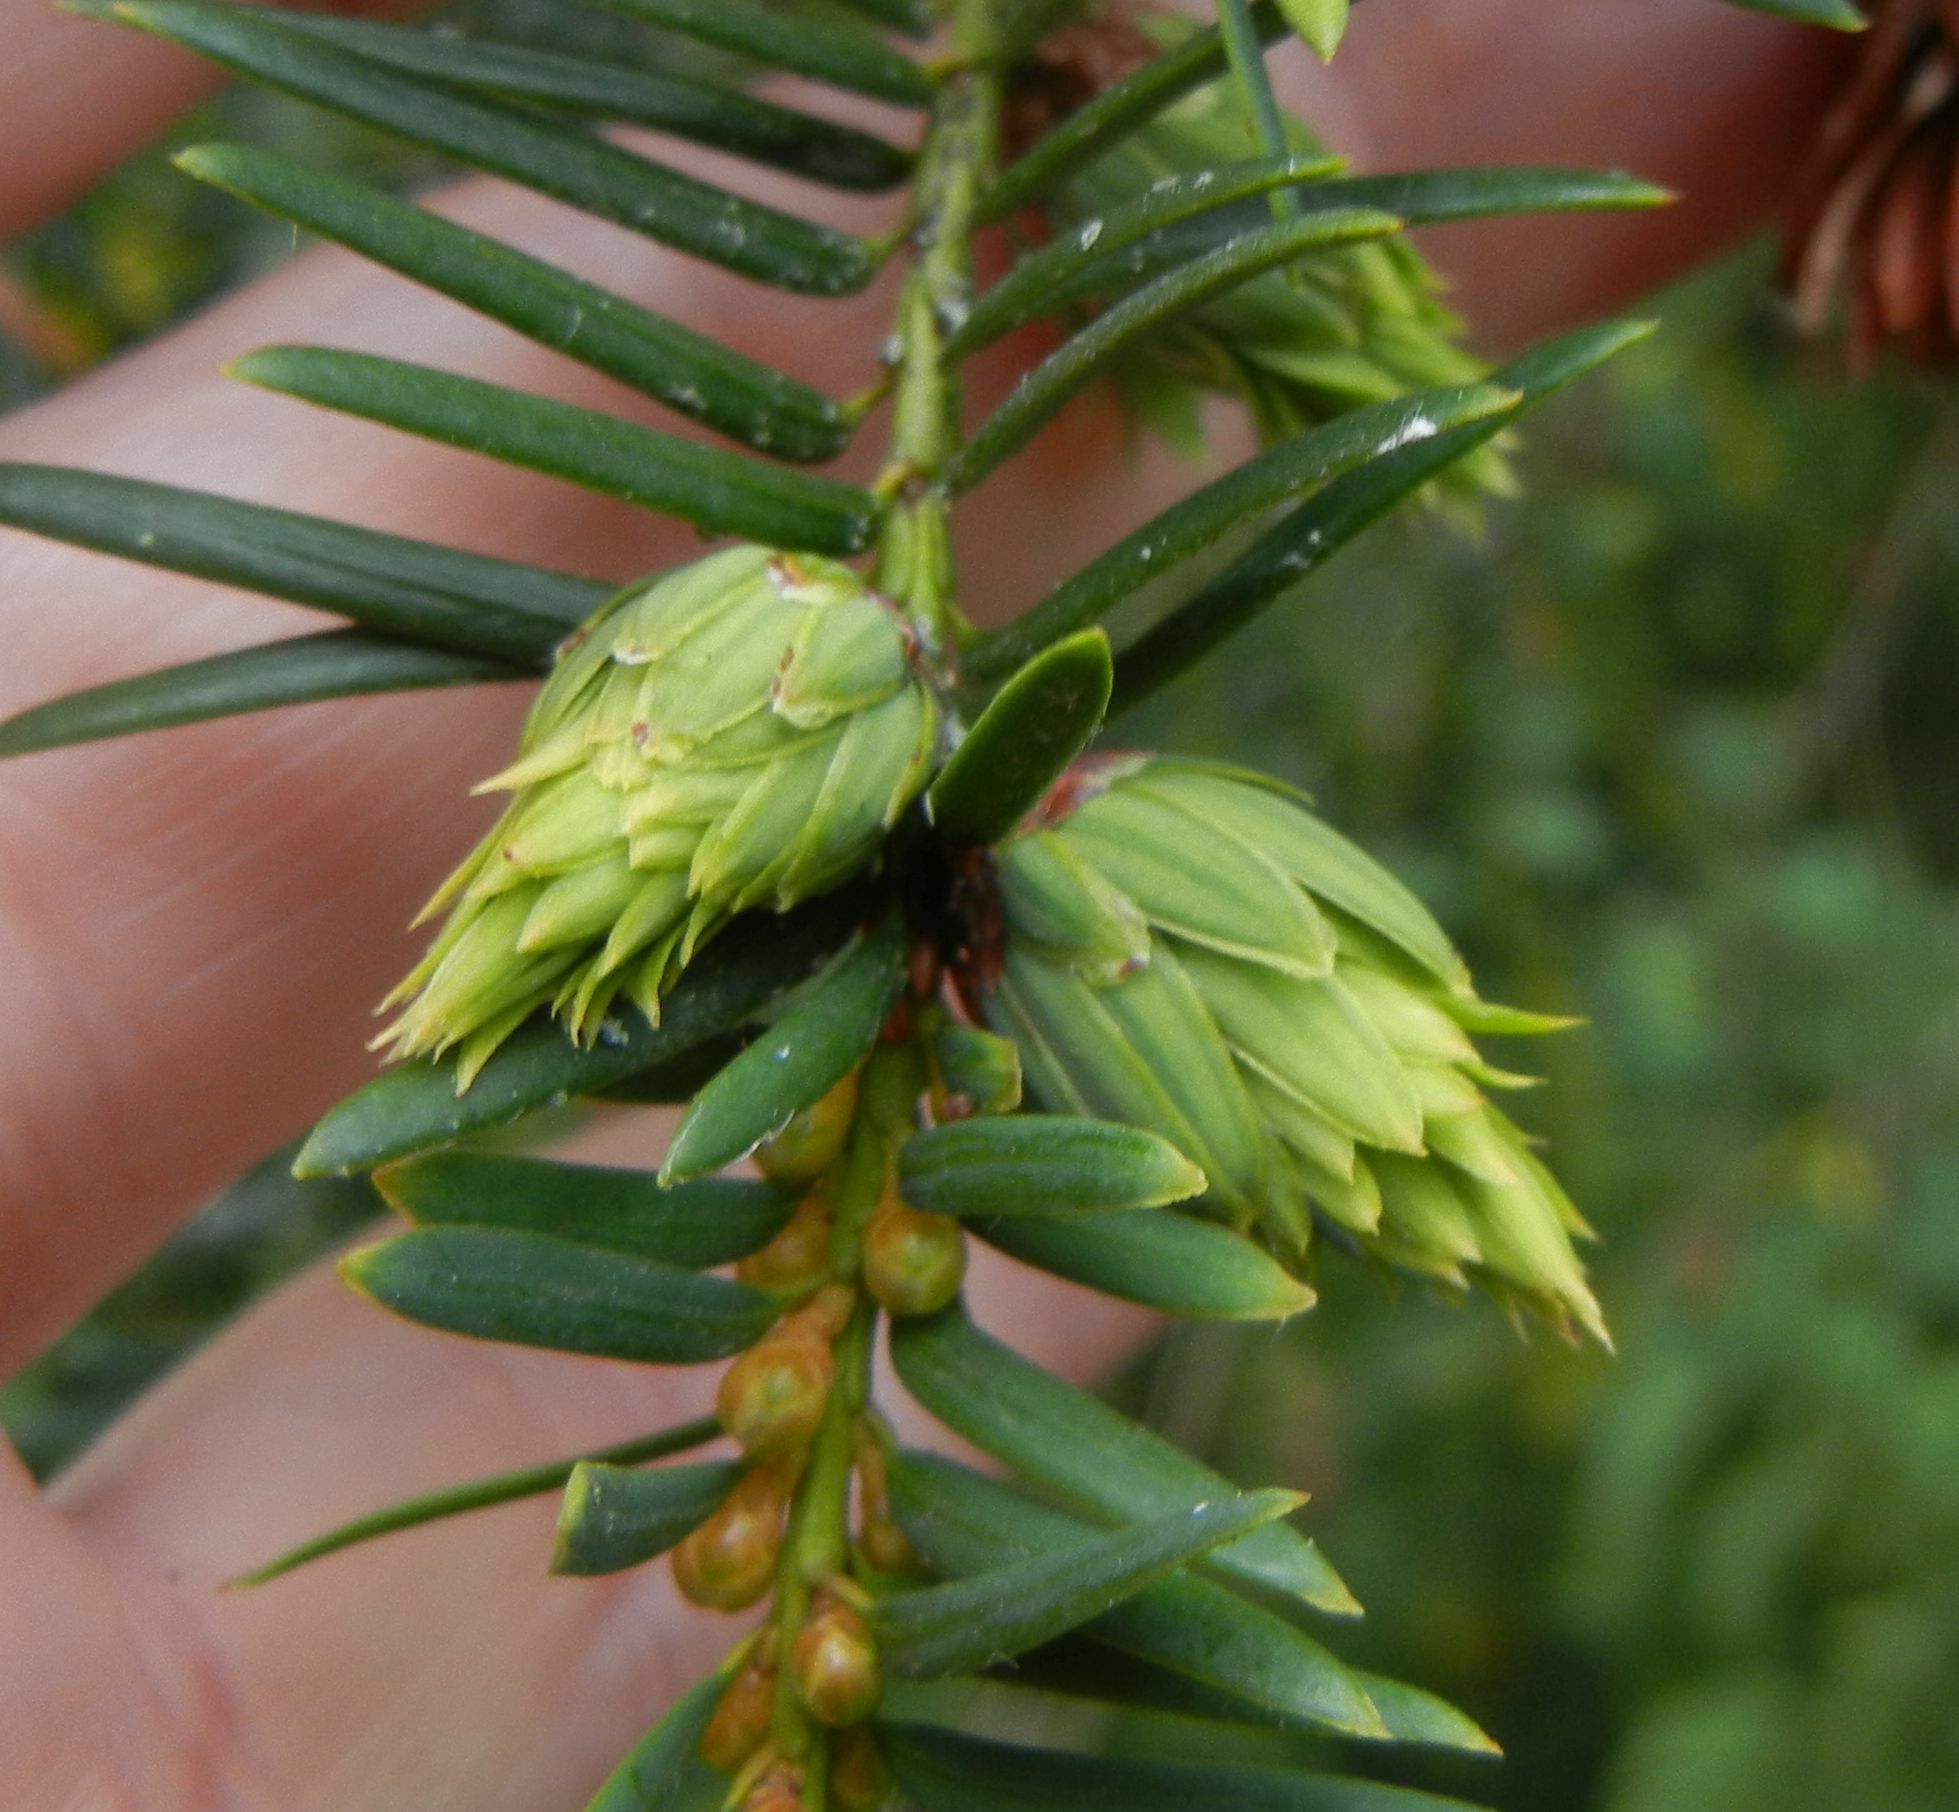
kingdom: Animalia
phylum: Arthropoda
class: Insecta
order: Diptera
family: Cecidomyiidae
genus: Taxomyia
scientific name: Taxomyia taxi
